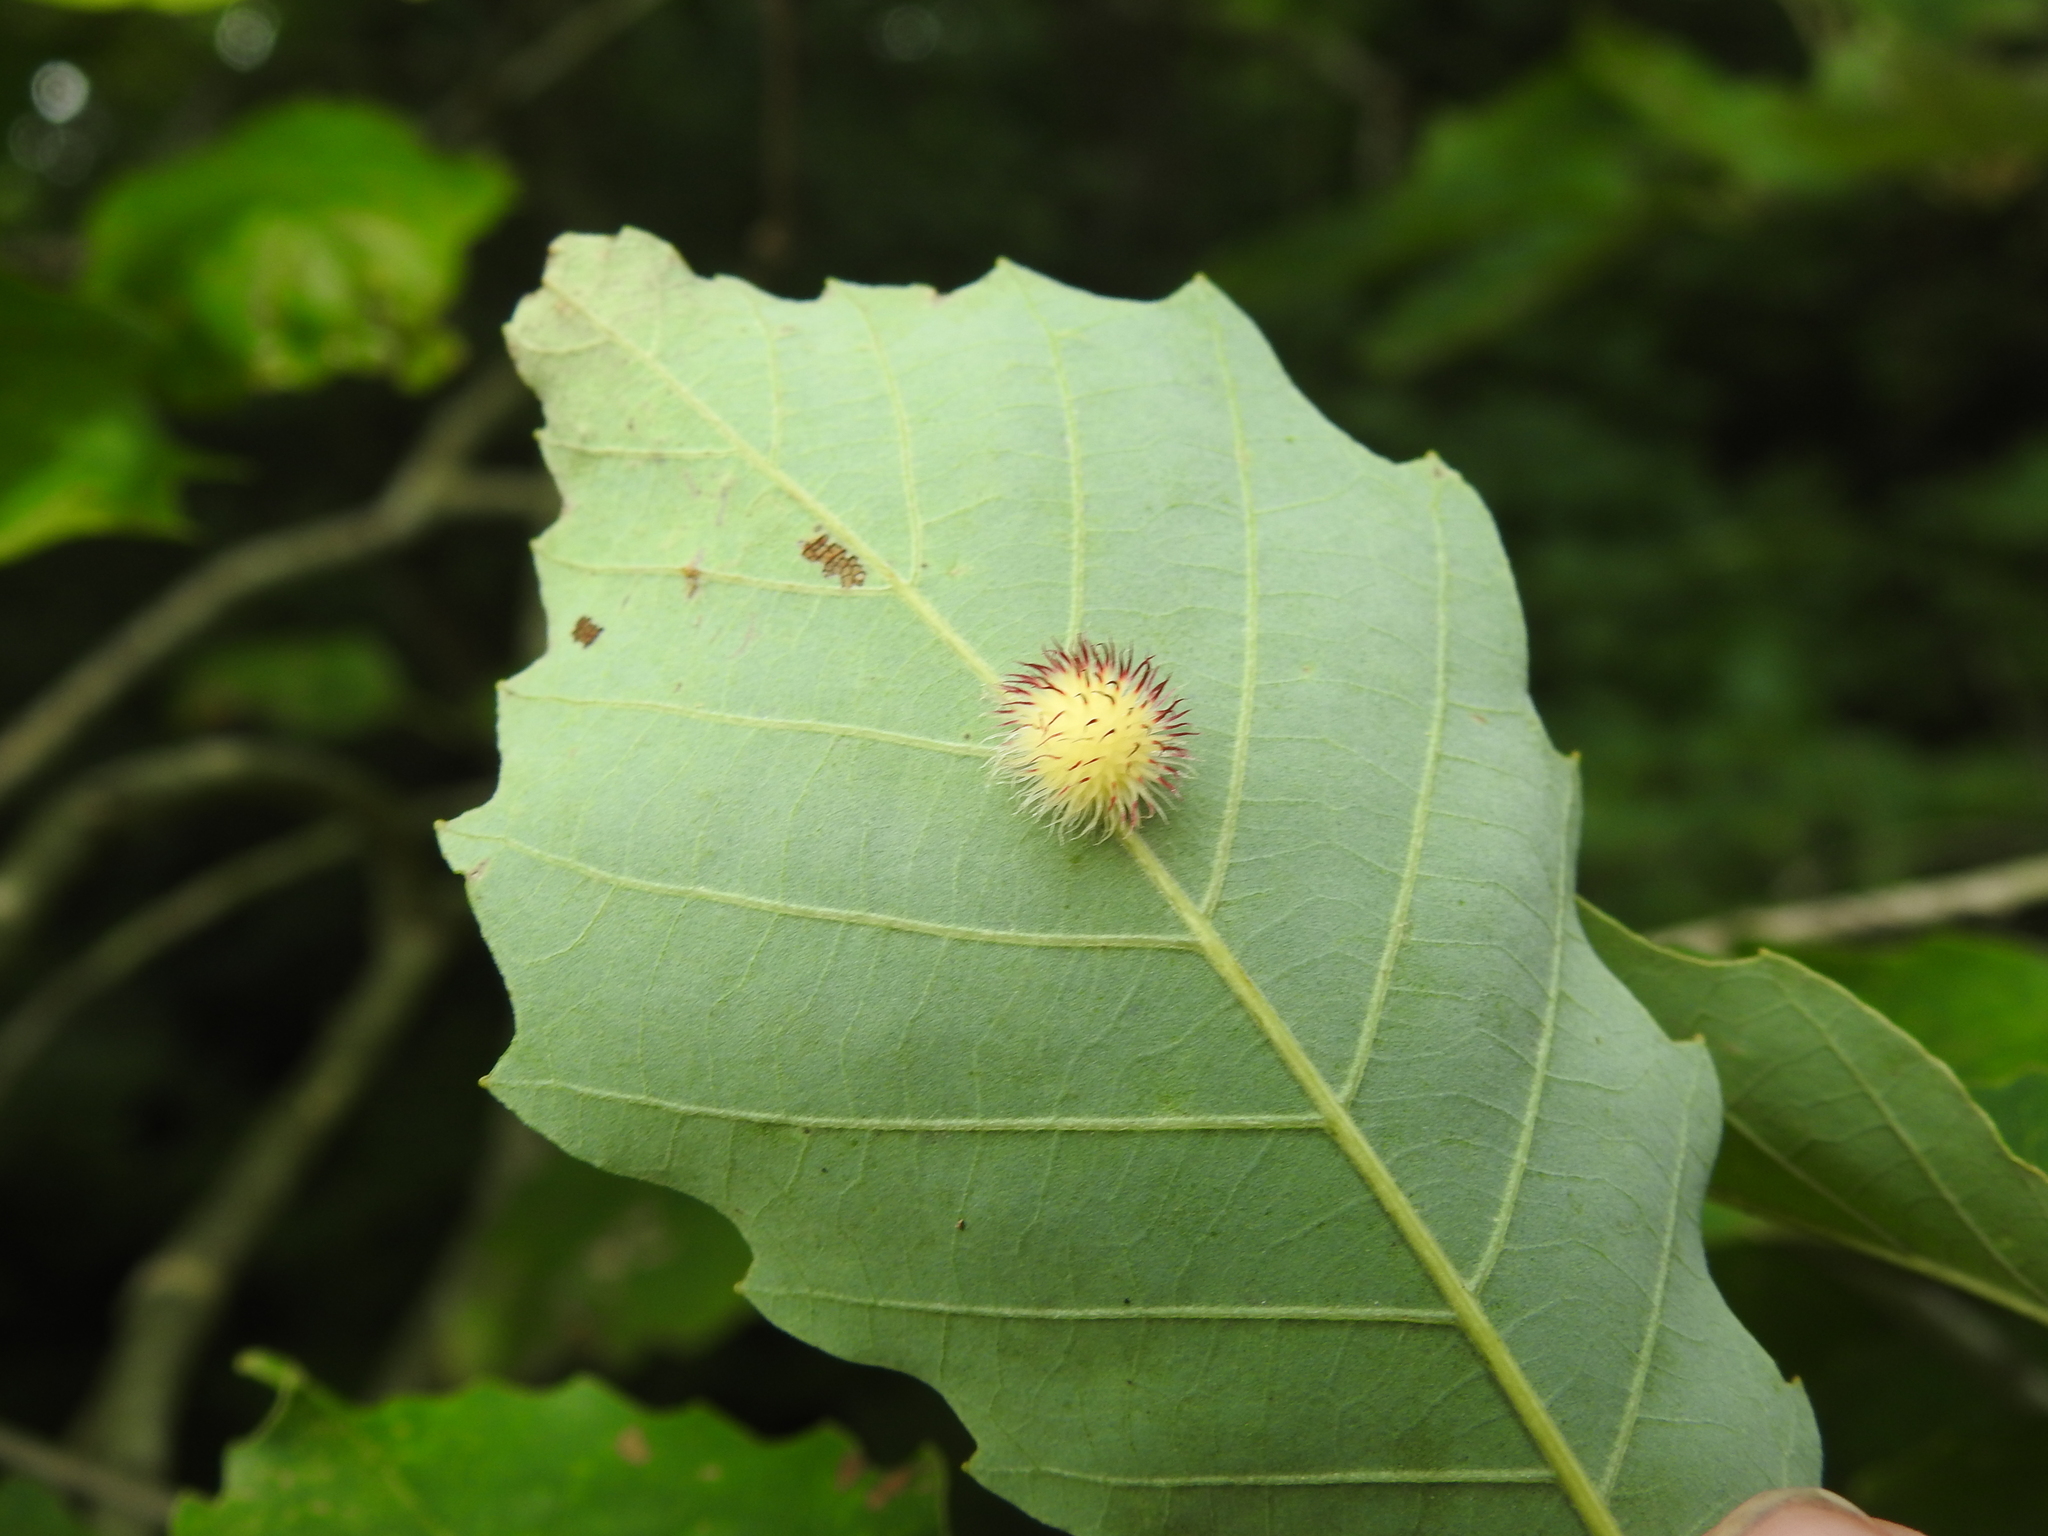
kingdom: Animalia
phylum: Arthropoda
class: Insecta
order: Hymenoptera
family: Cynipidae
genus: Acraspis
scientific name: Acraspis
